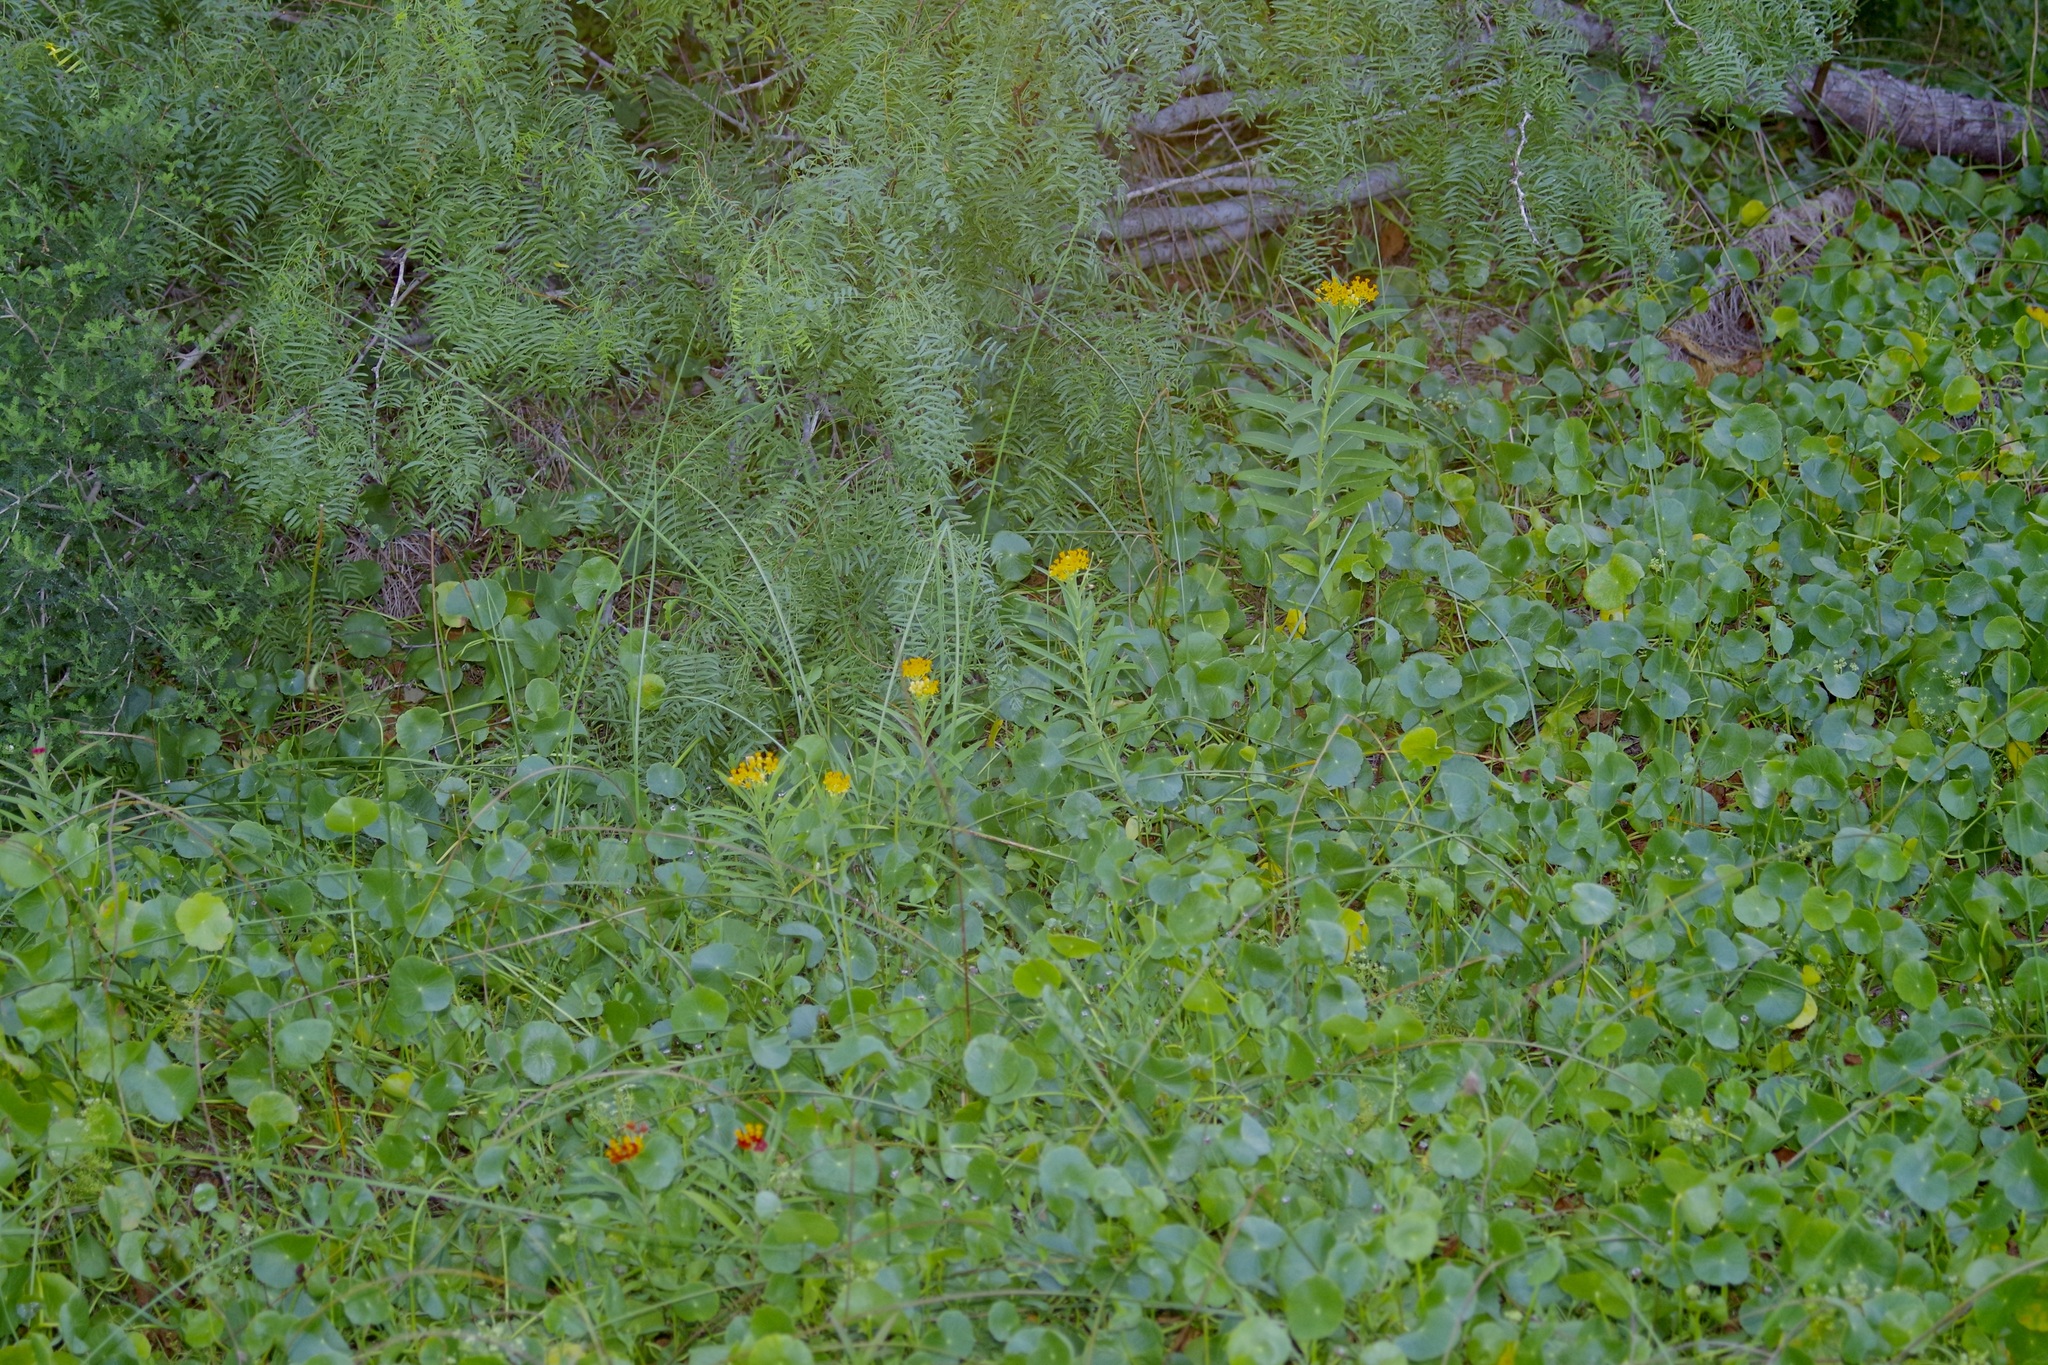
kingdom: Plantae
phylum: Tracheophyta
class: Magnoliopsida
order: Gentianales
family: Apocynaceae
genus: Asclepias
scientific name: Asclepias curassavica
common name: Bloodflower
